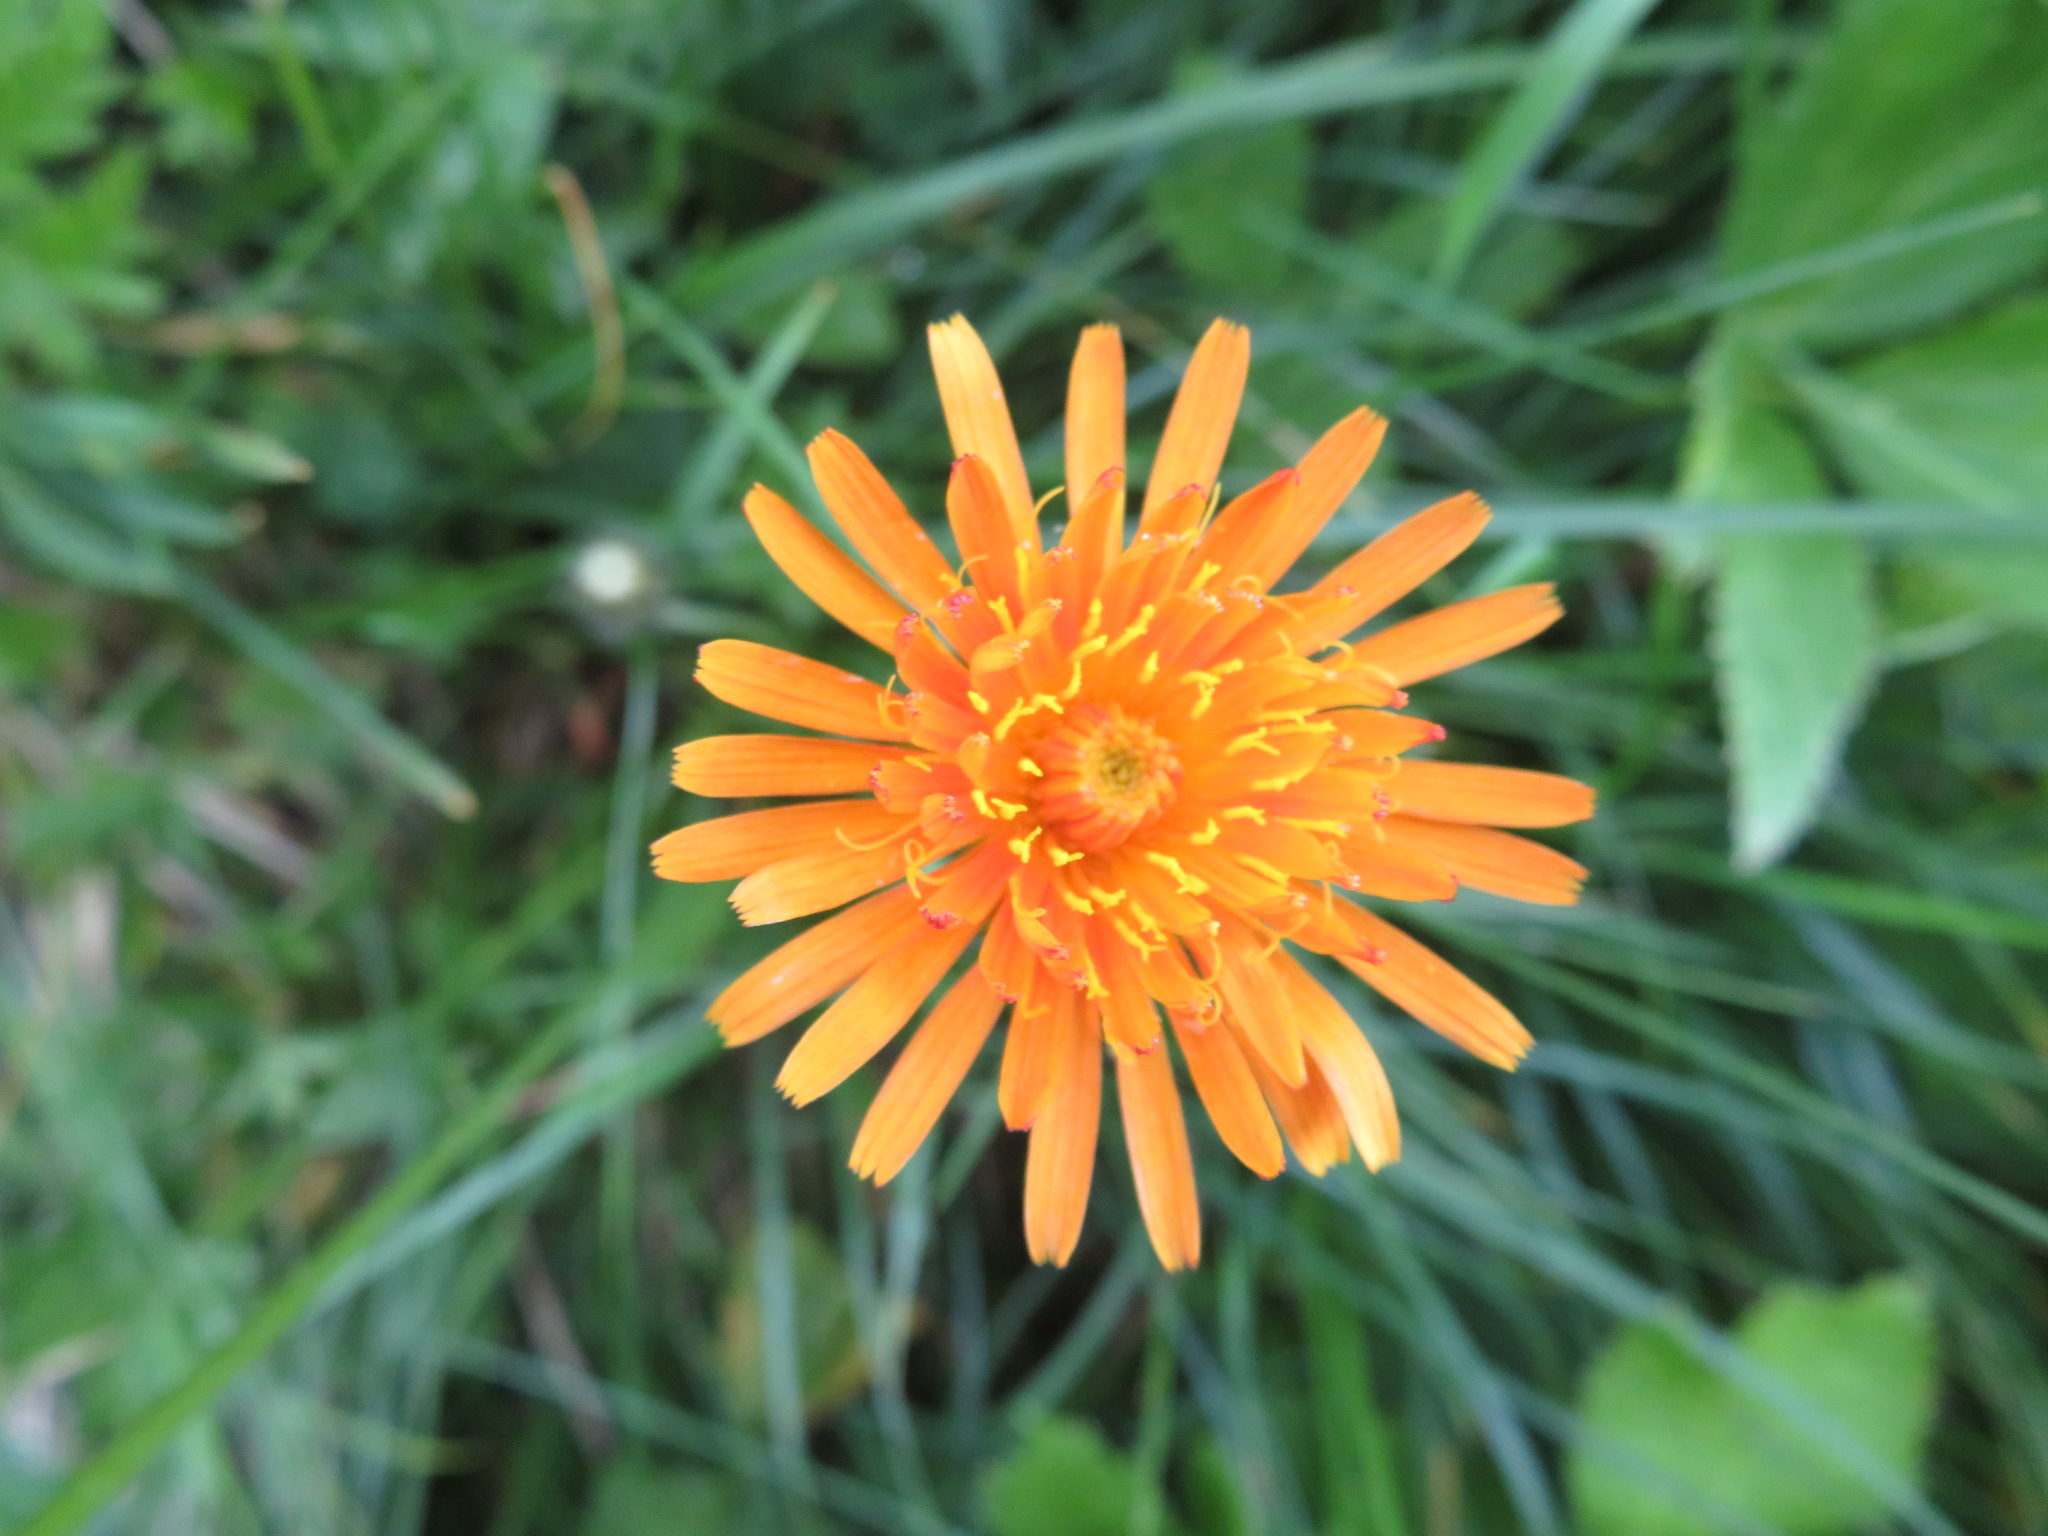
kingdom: Plantae
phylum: Tracheophyta
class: Magnoliopsida
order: Asterales
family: Asteraceae
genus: Crepis
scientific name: Crepis aurea
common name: Golden hawk's-beard
